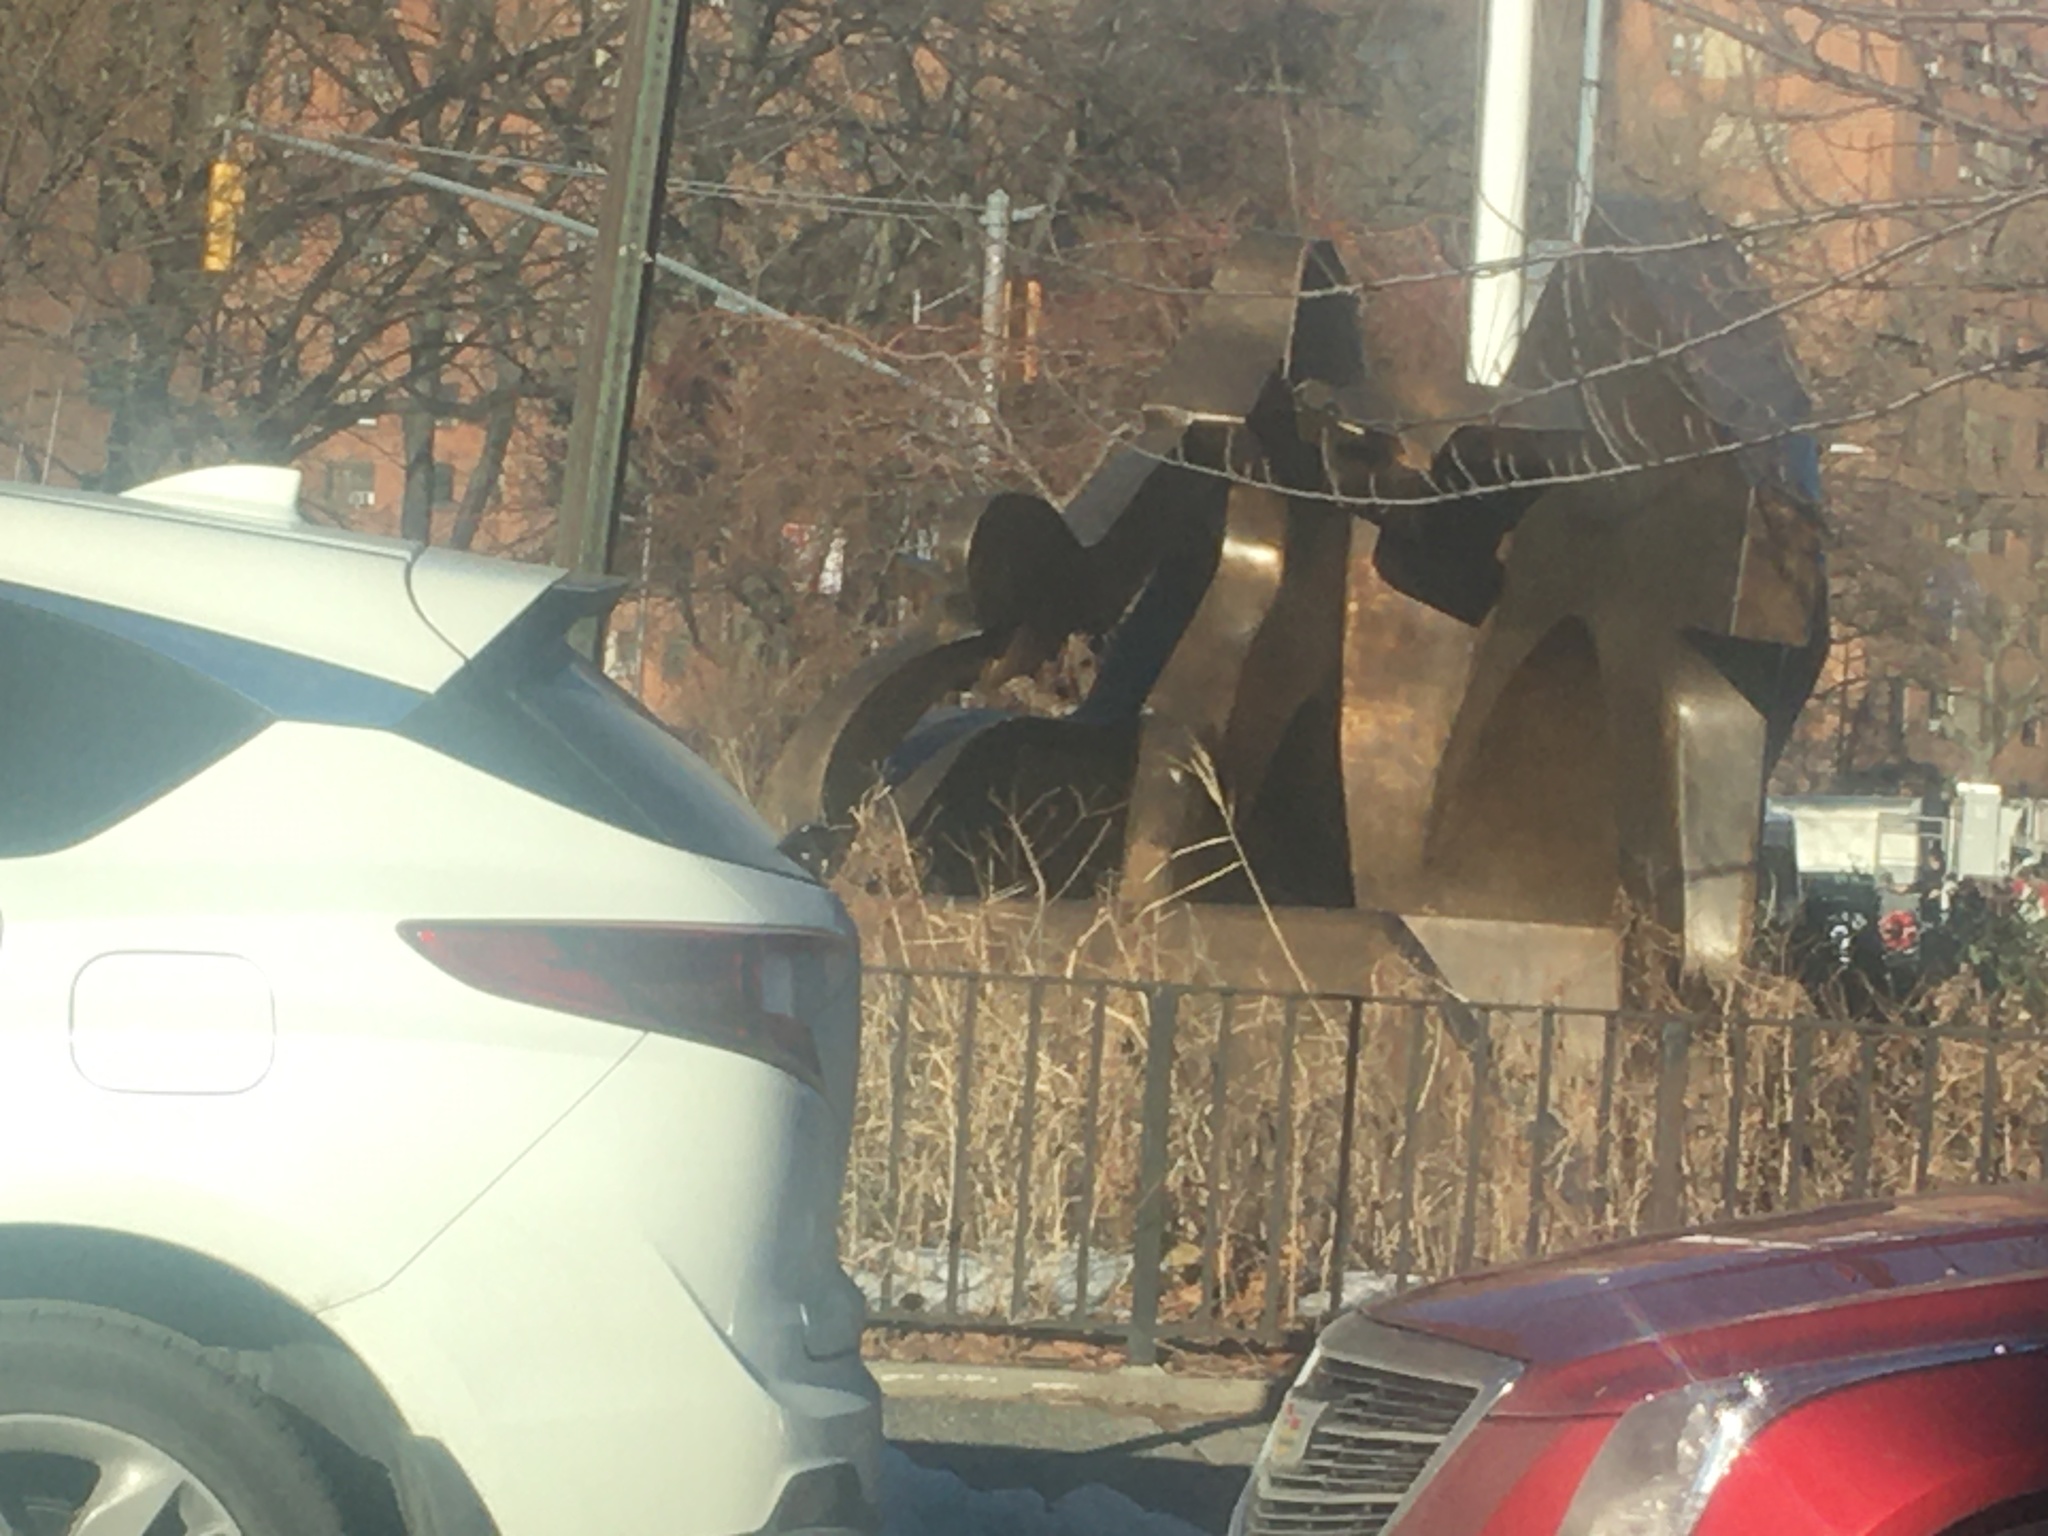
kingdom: Plantae
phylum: Tracheophyta
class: Liliopsida
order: Poales
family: Poaceae
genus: Phragmites
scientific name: Phragmites australis
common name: Common reed
